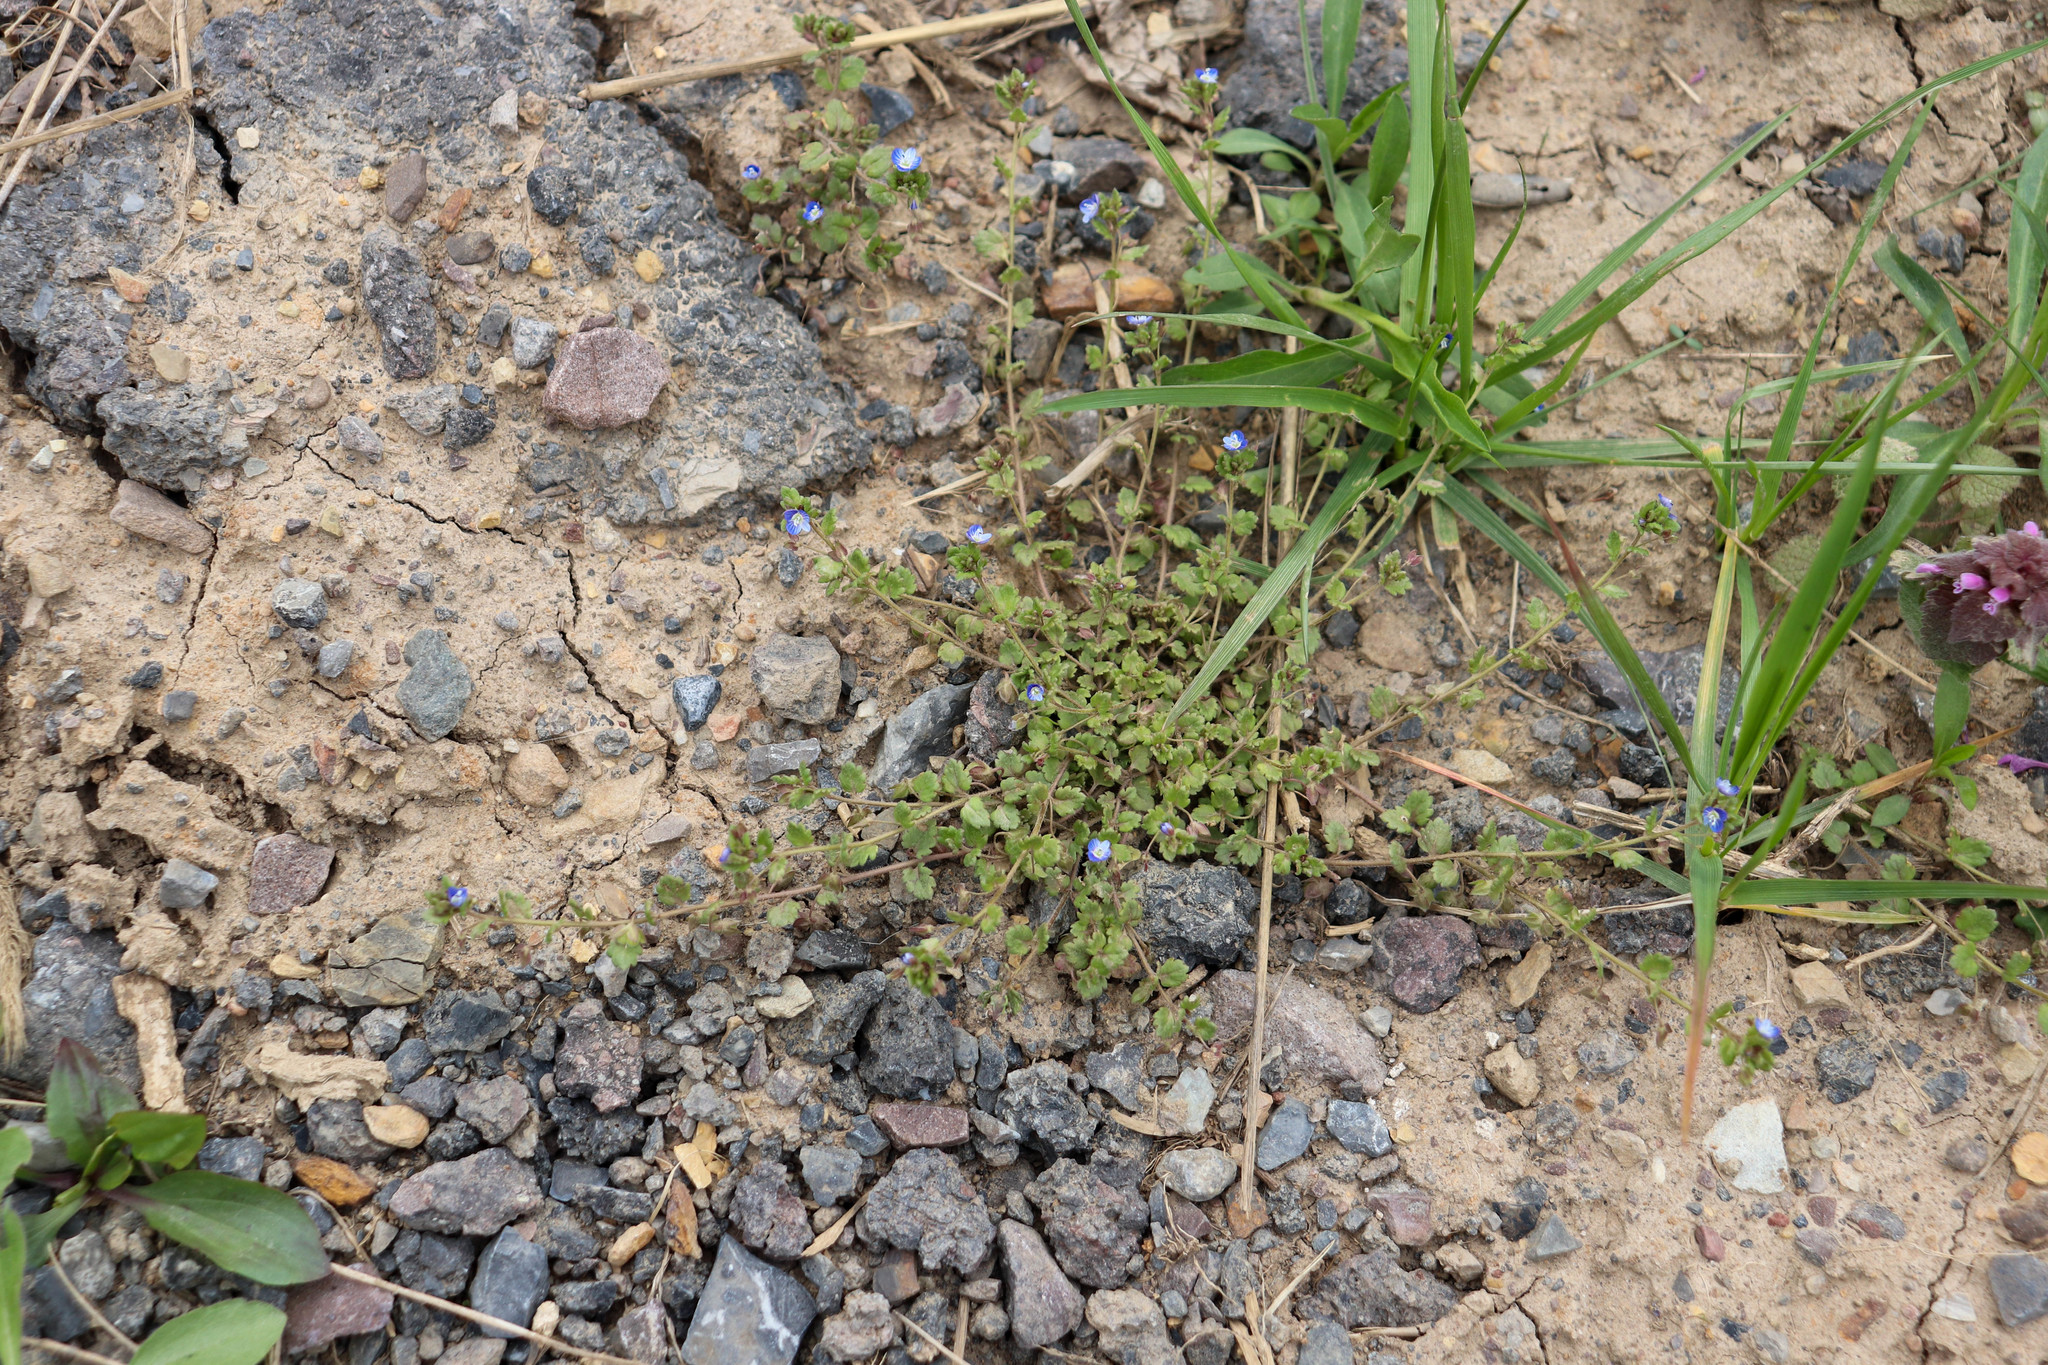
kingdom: Plantae
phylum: Tracheophyta
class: Magnoliopsida
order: Lamiales
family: Plantaginaceae
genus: Veronica
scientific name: Veronica polita
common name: Grey field-speedwell
